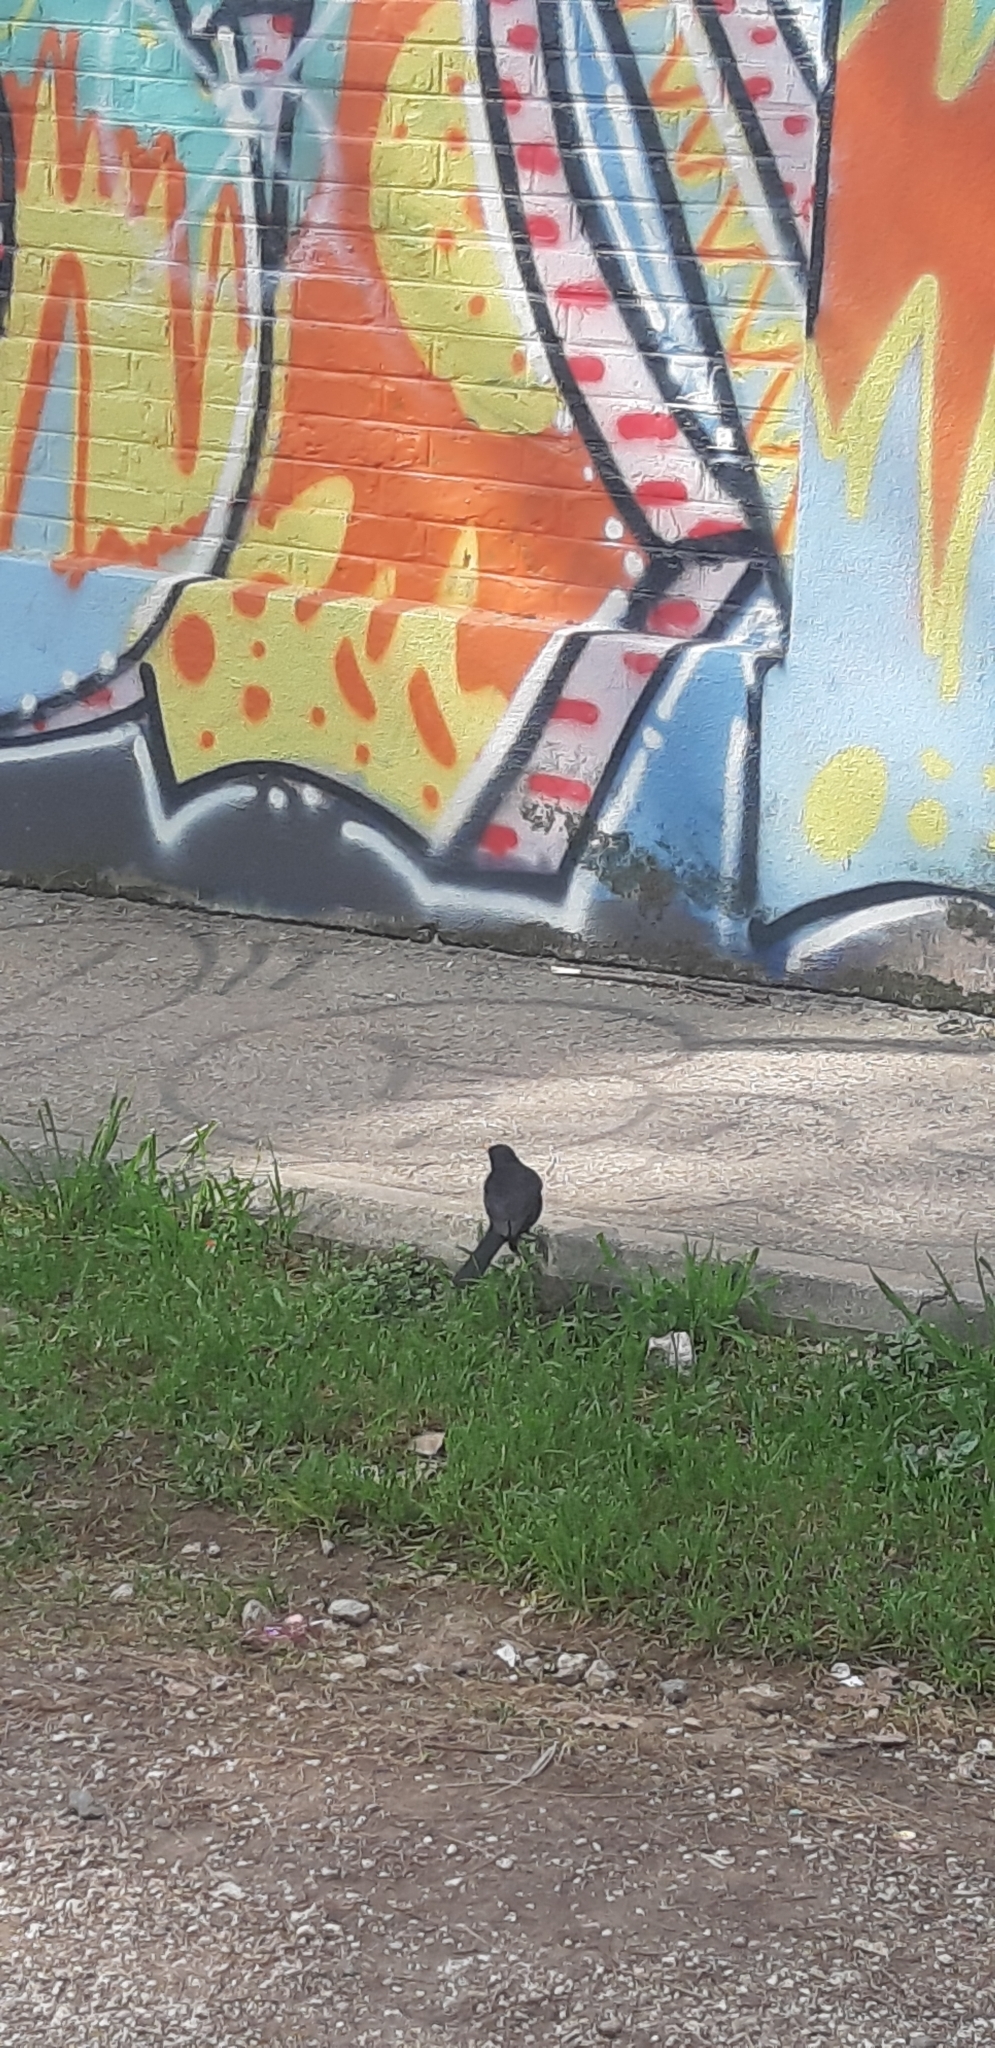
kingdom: Animalia
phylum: Chordata
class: Aves
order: Passeriformes
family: Turdidae
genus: Turdus
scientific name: Turdus merula
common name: Common blackbird
